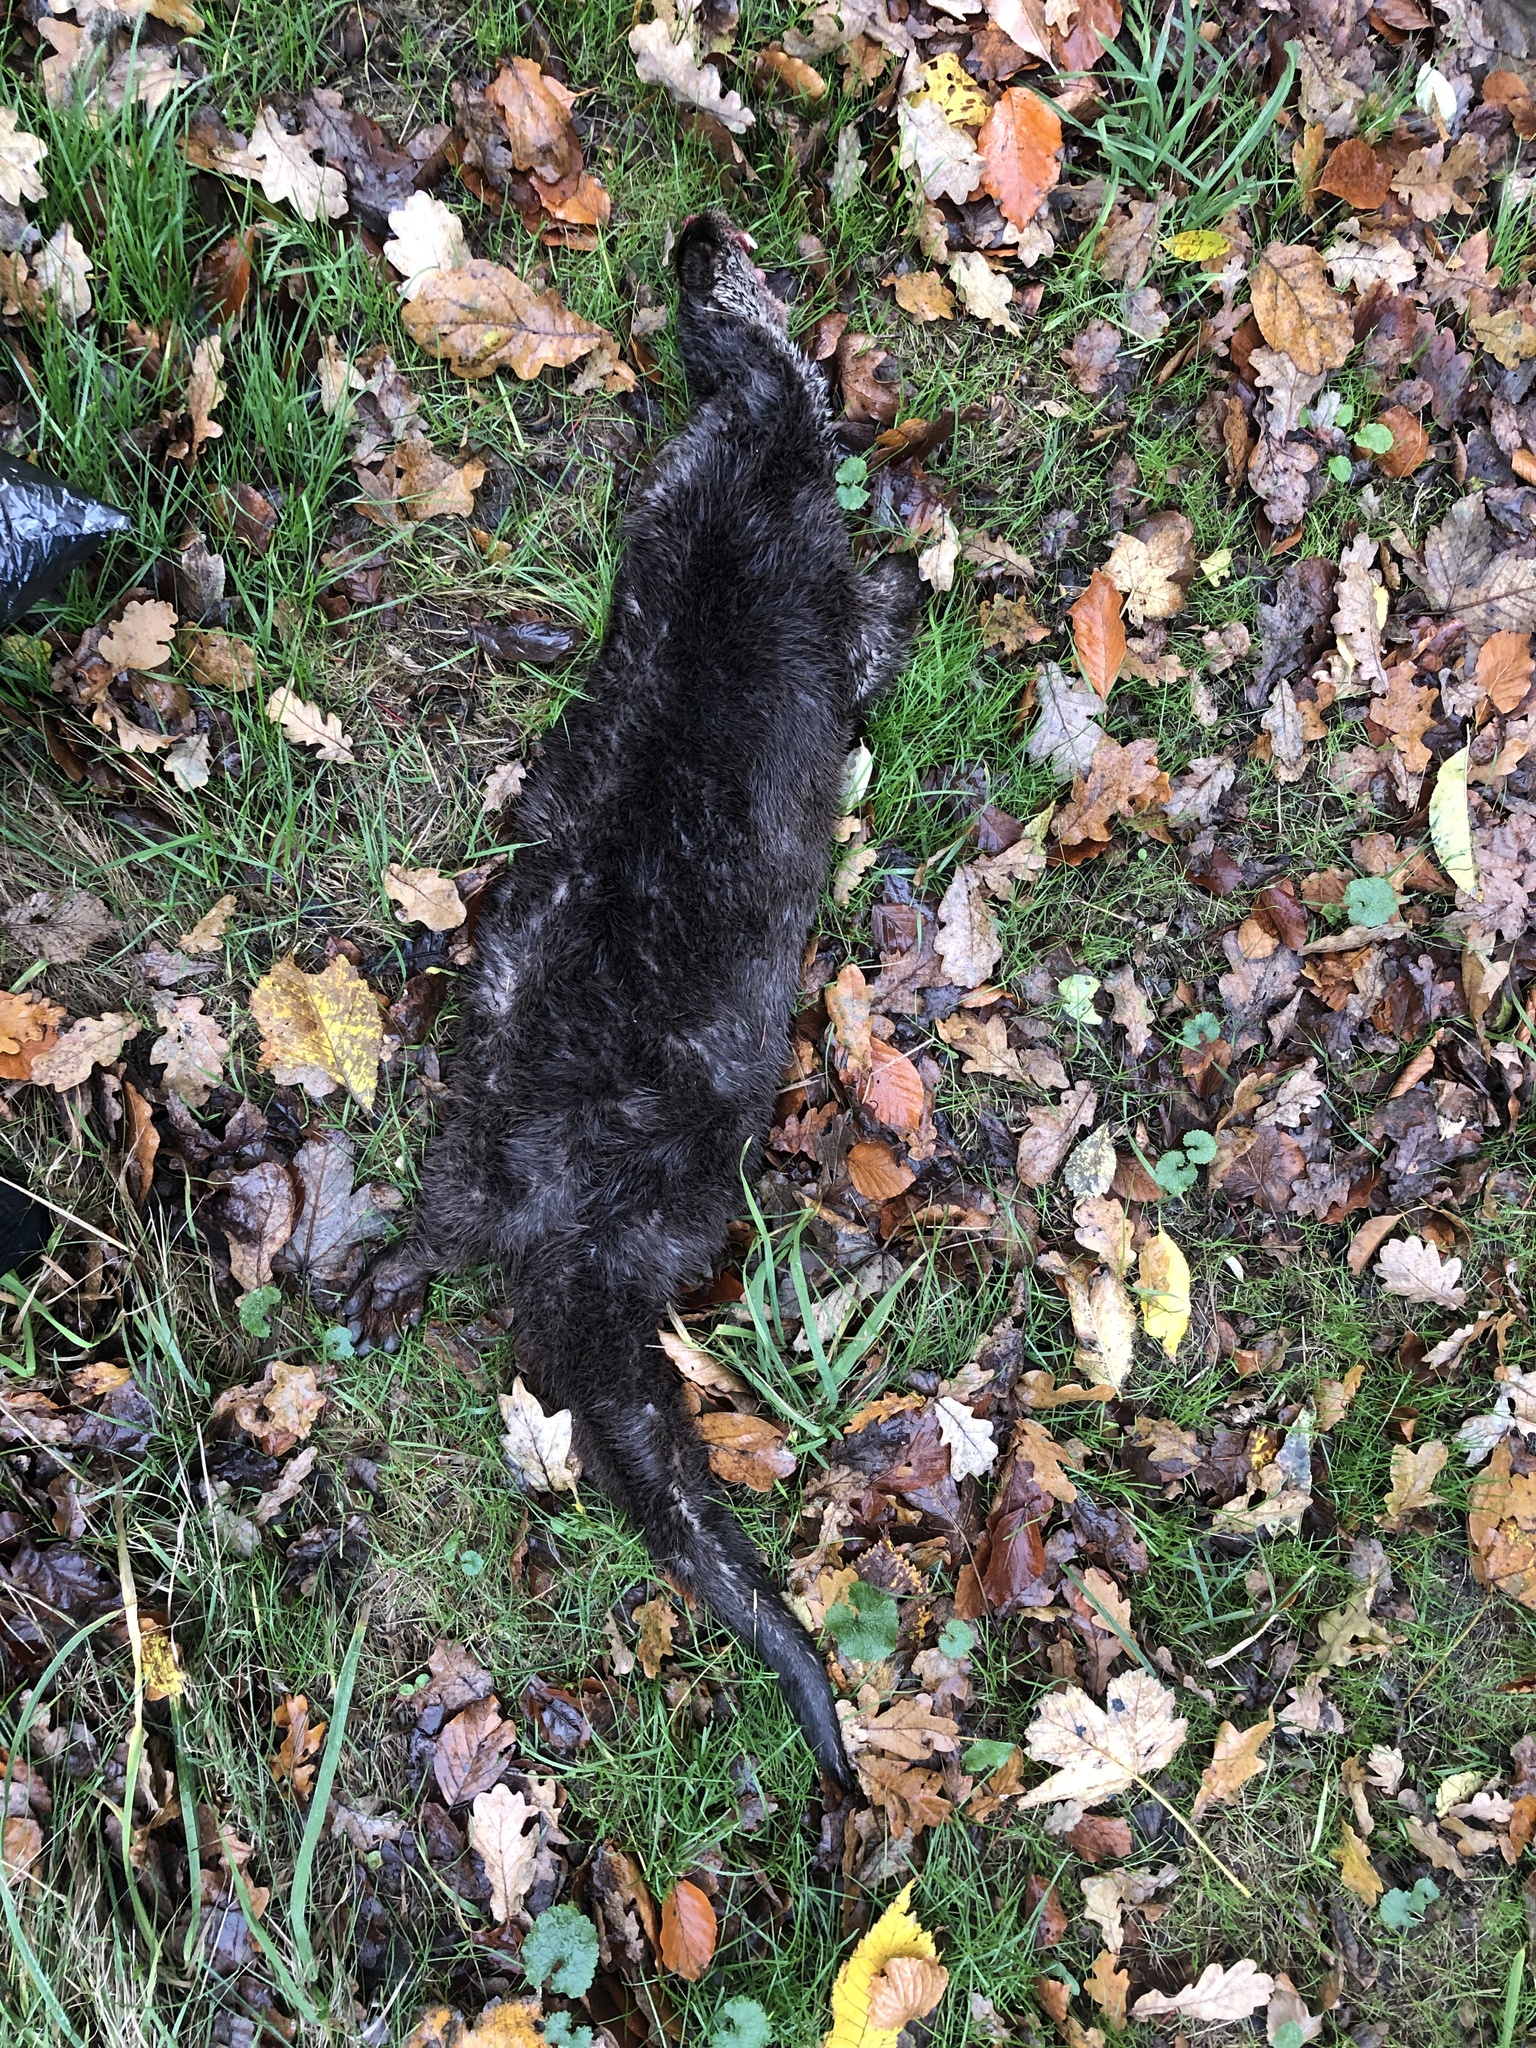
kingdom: Animalia
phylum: Chordata
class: Mammalia
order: Carnivora
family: Mustelidae
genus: Lutra
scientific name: Lutra lutra
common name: European otter
